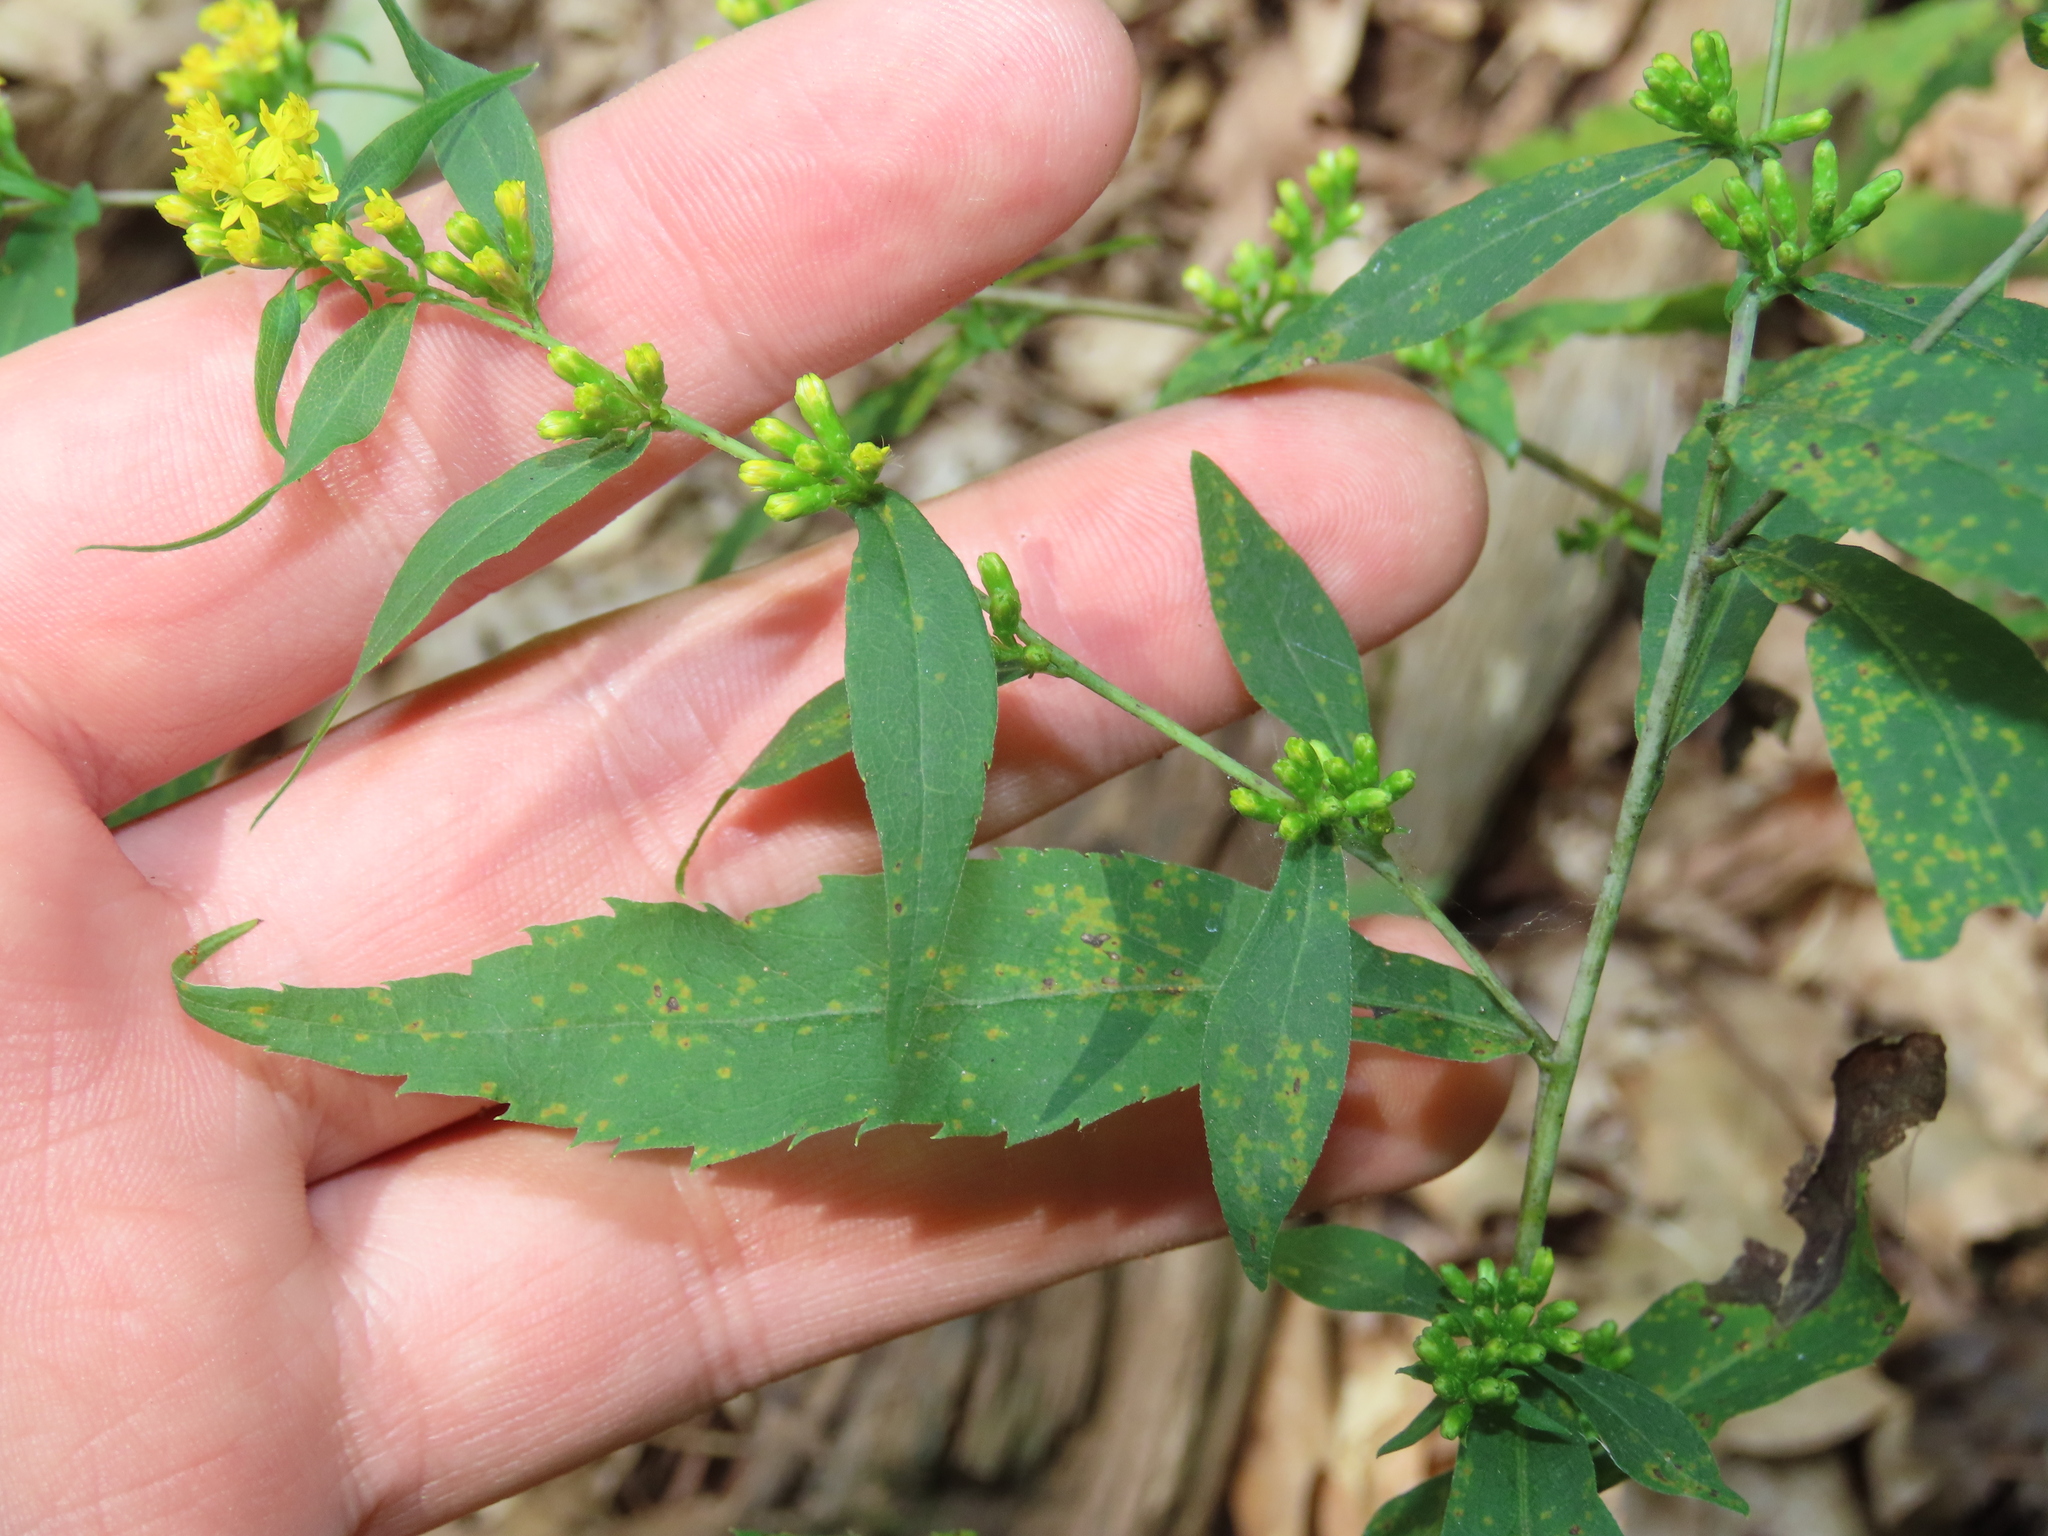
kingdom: Plantae
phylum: Tracheophyta
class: Magnoliopsida
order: Asterales
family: Asteraceae
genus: Solidago
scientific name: Solidago caesia
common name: Woodland goldenrod
